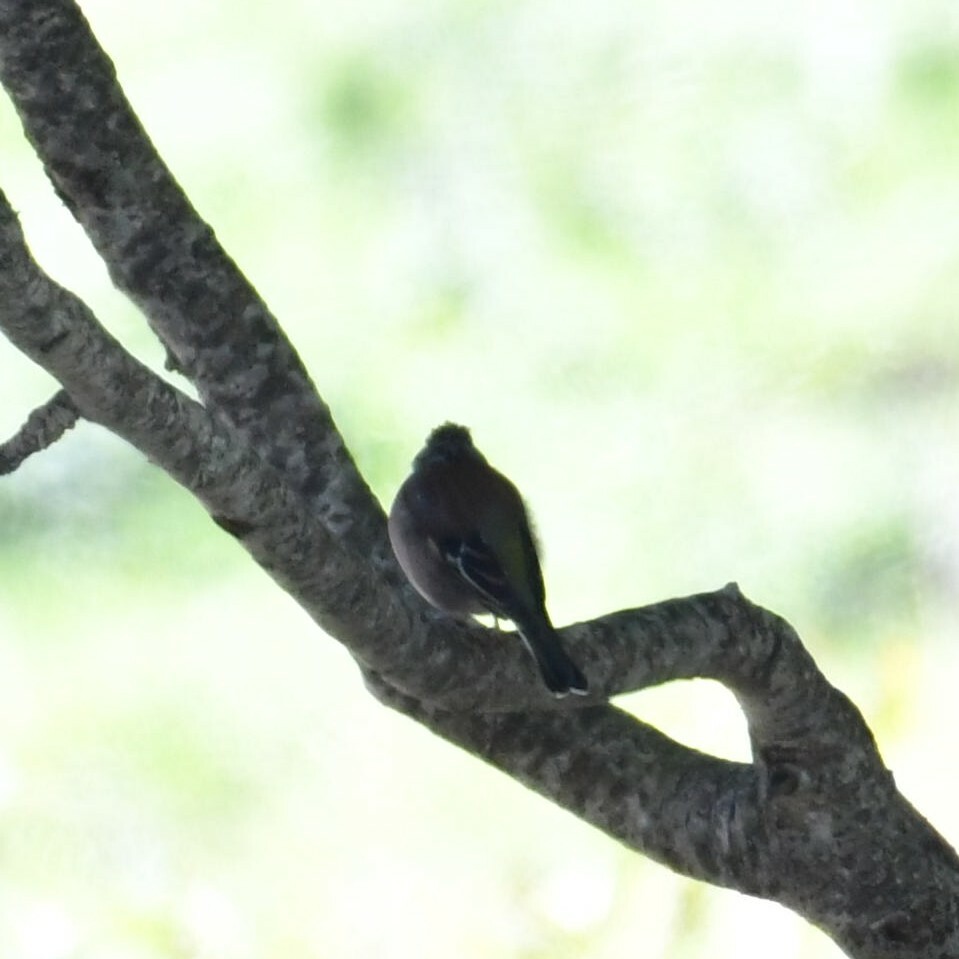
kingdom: Animalia
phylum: Chordata
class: Aves
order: Passeriformes
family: Fringillidae
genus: Fringilla
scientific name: Fringilla coelebs
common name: Common chaffinch
